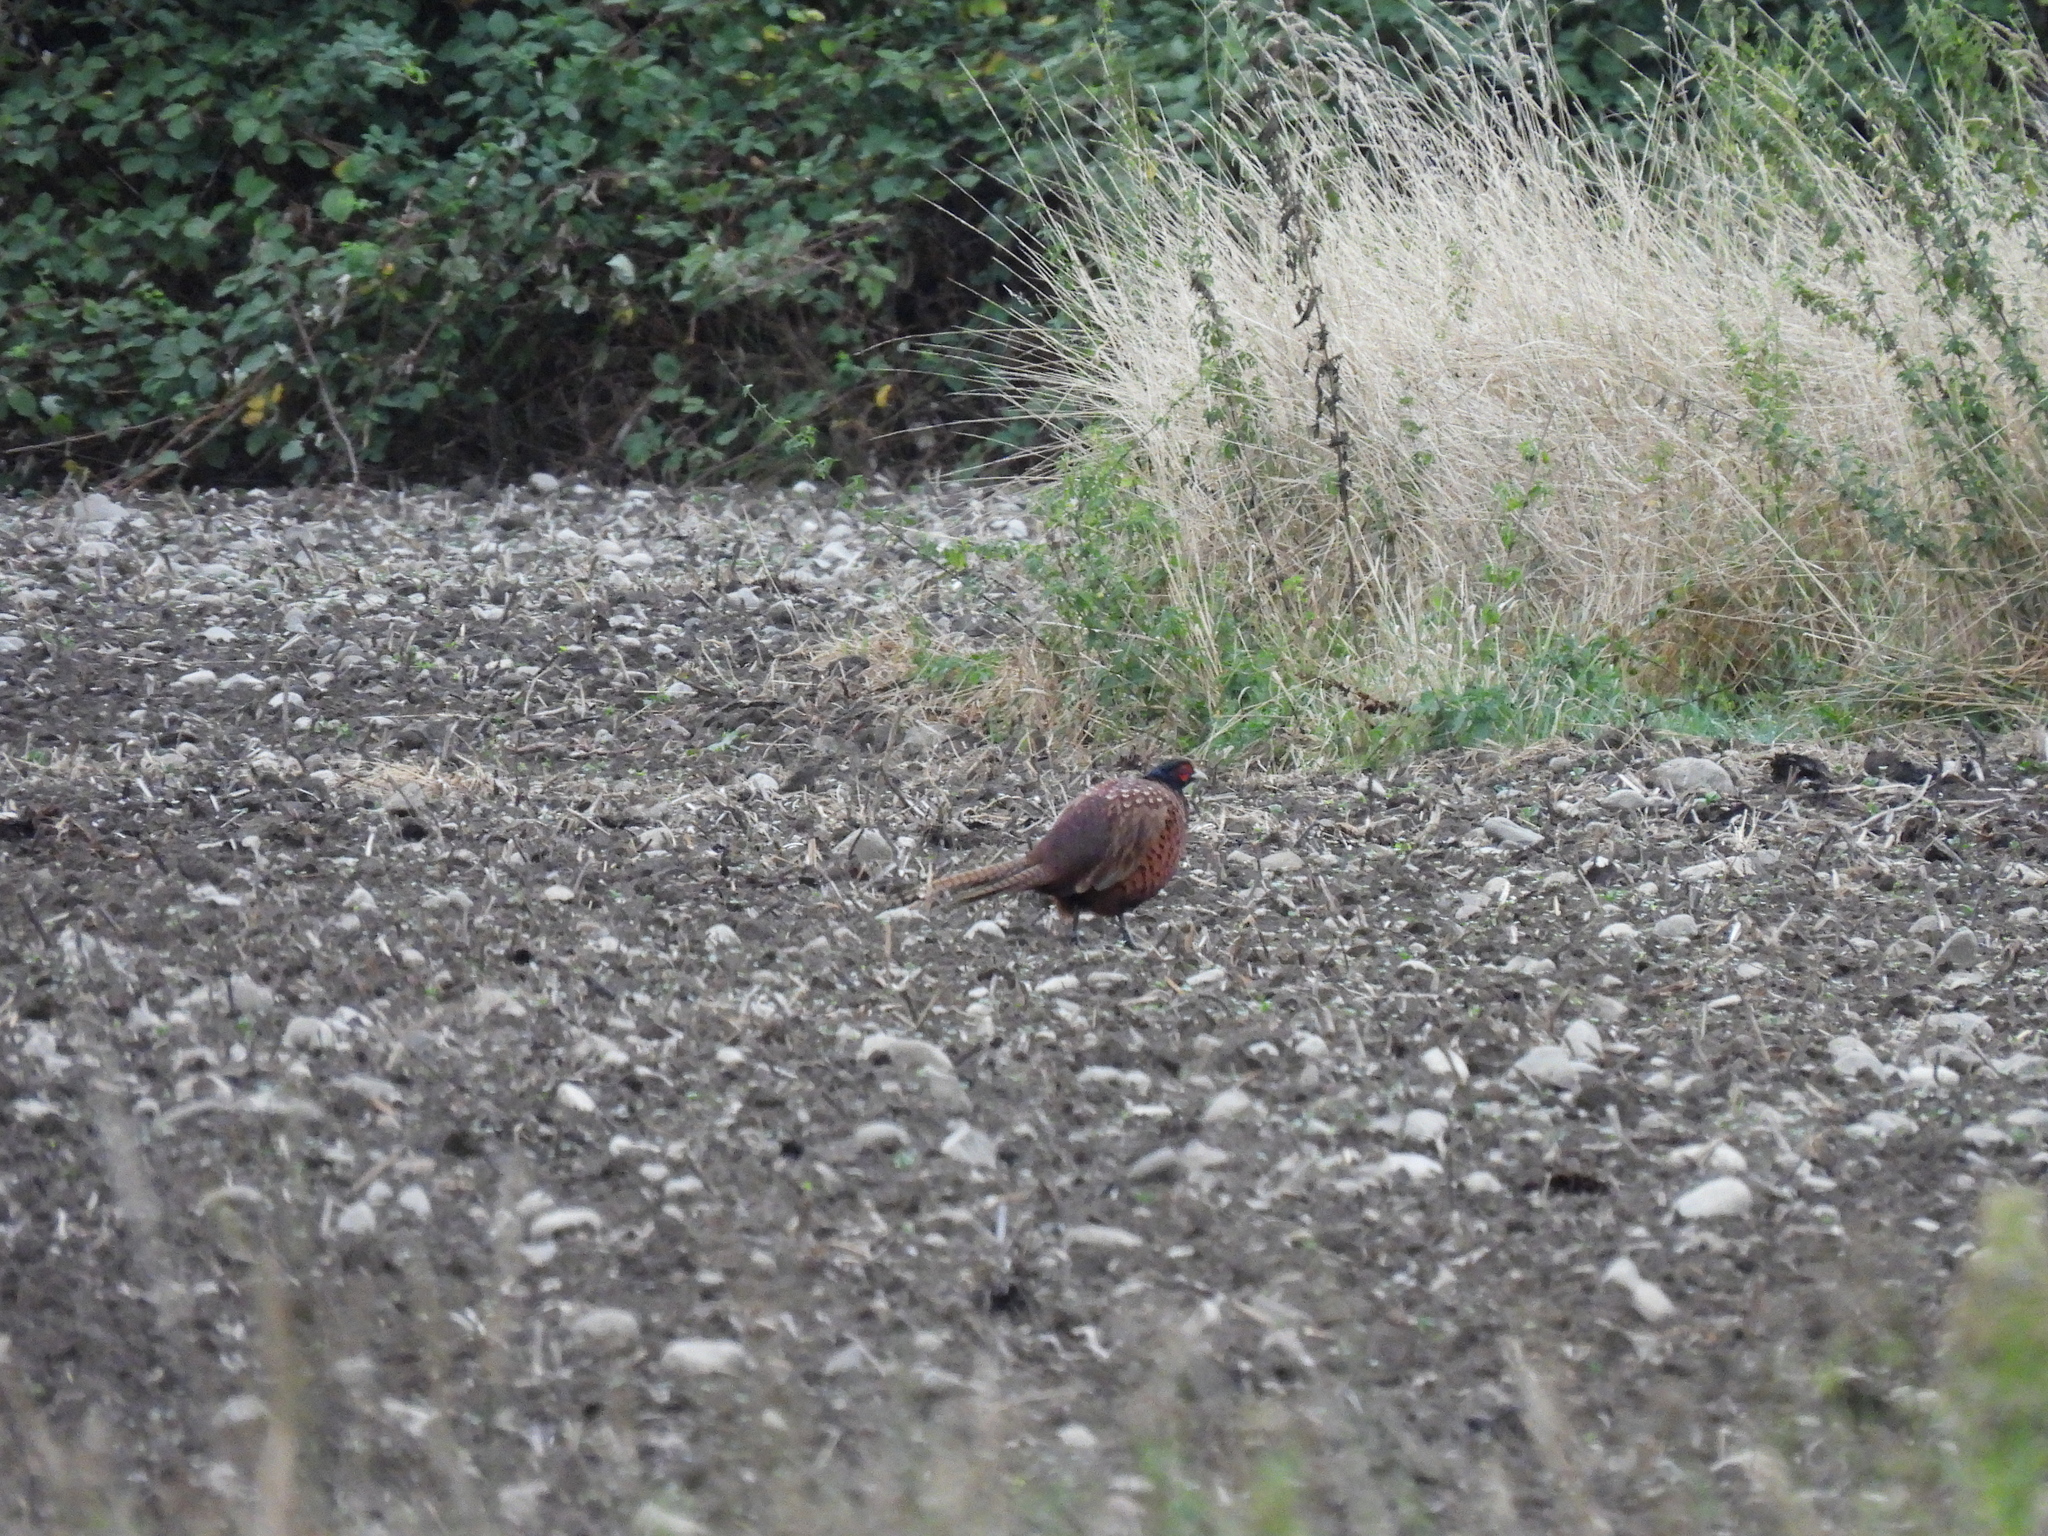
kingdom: Animalia
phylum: Chordata
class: Aves
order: Galliformes
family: Phasianidae
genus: Phasianus
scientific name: Phasianus colchicus
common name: Common pheasant
